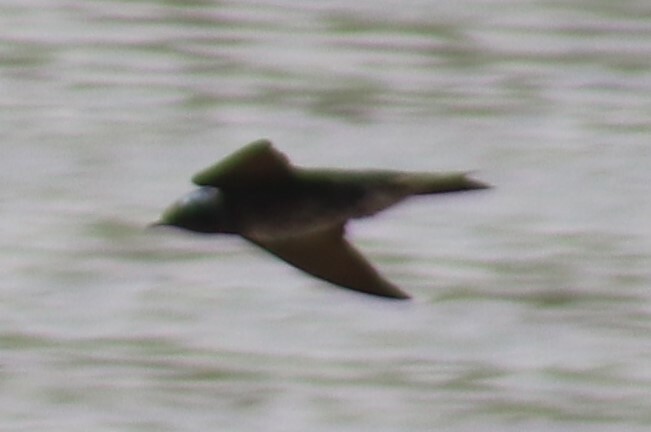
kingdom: Animalia
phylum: Chordata
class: Aves
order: Passeriformes
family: Hirundinidae
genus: Progne
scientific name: Progne subis
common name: Purple martin
